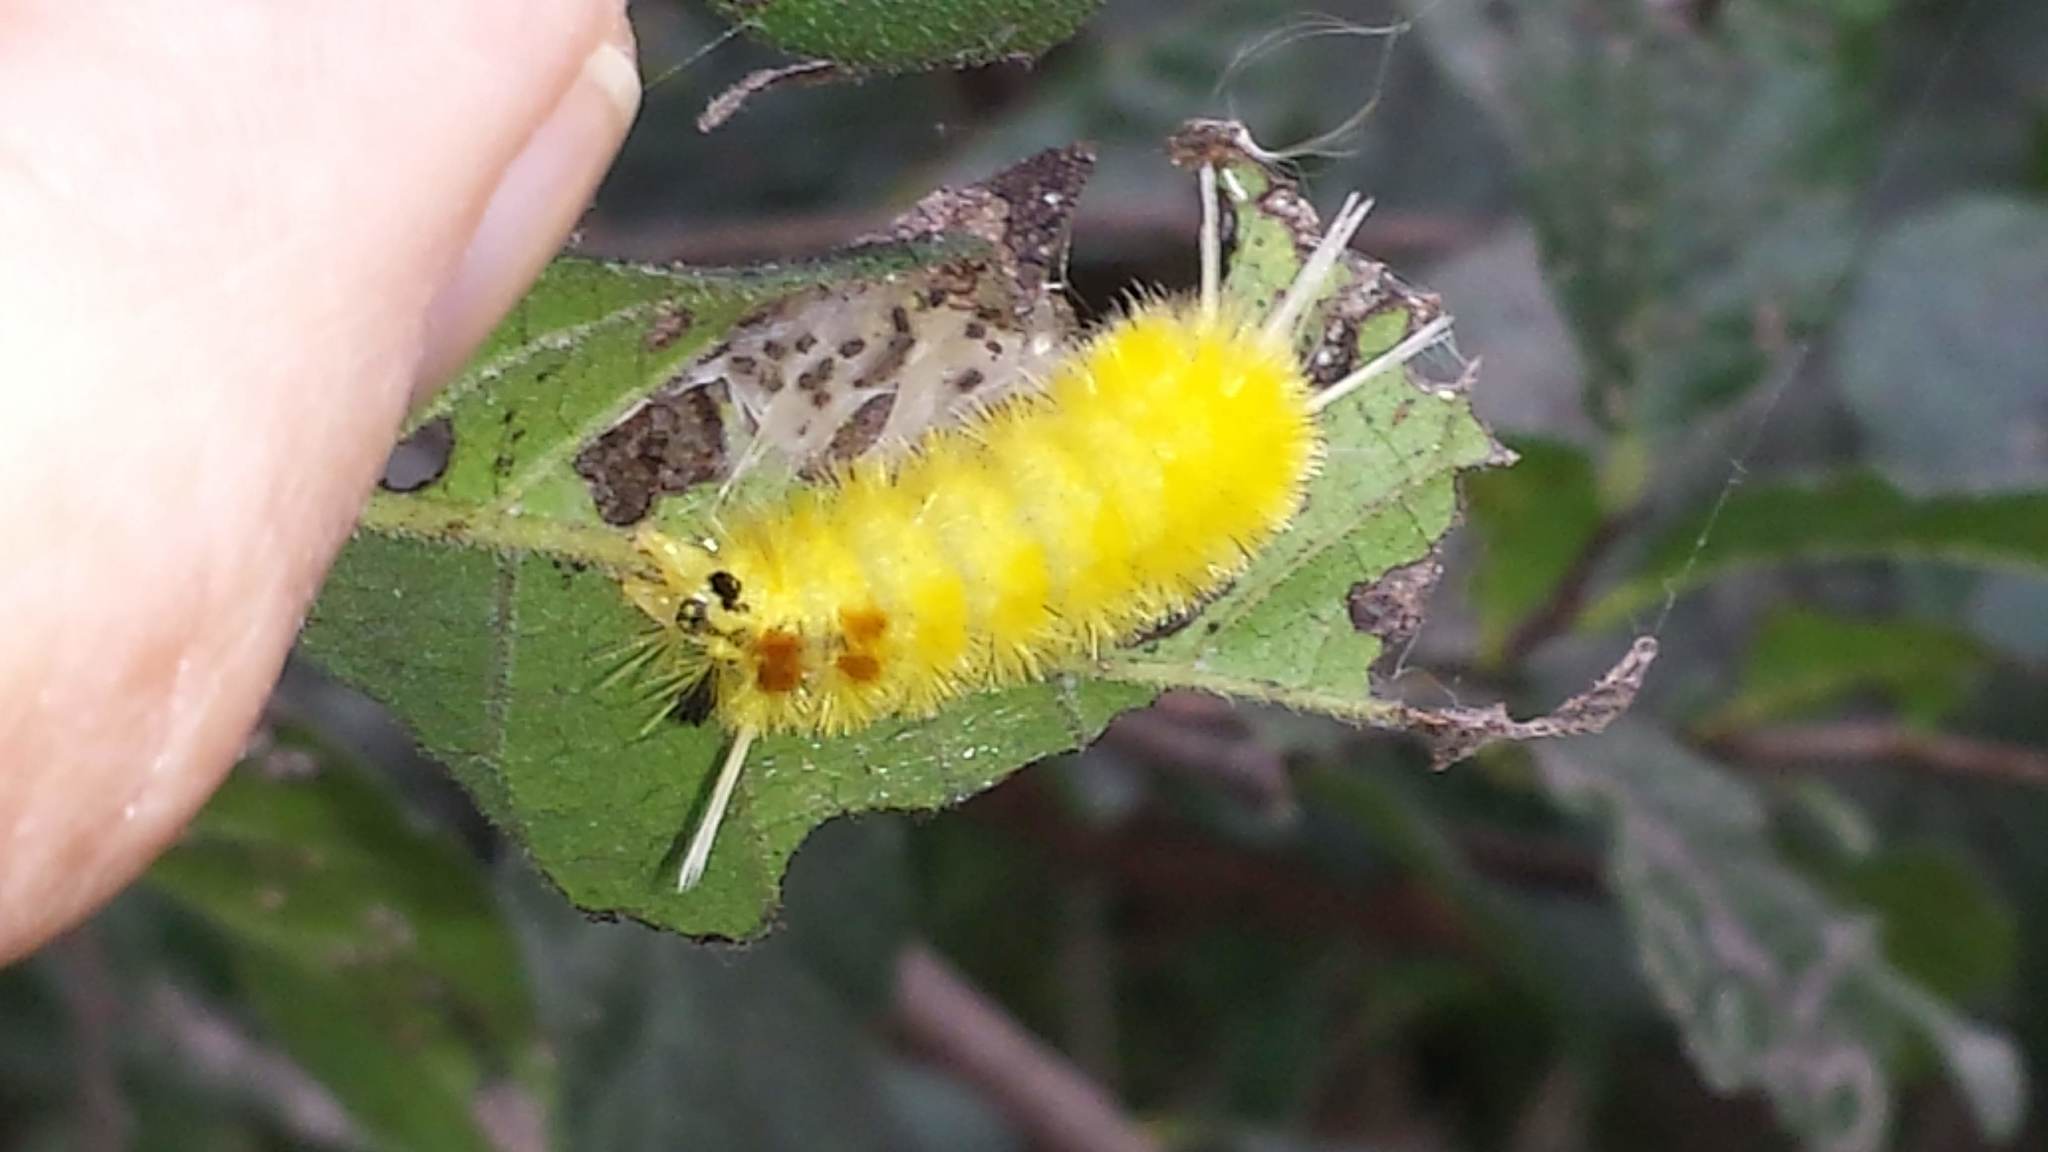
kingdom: Animalia
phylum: Arthropoda
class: Insecta
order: Lepidoptera
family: Erebidae
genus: Lophocampa
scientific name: Lophocampa annulosa
